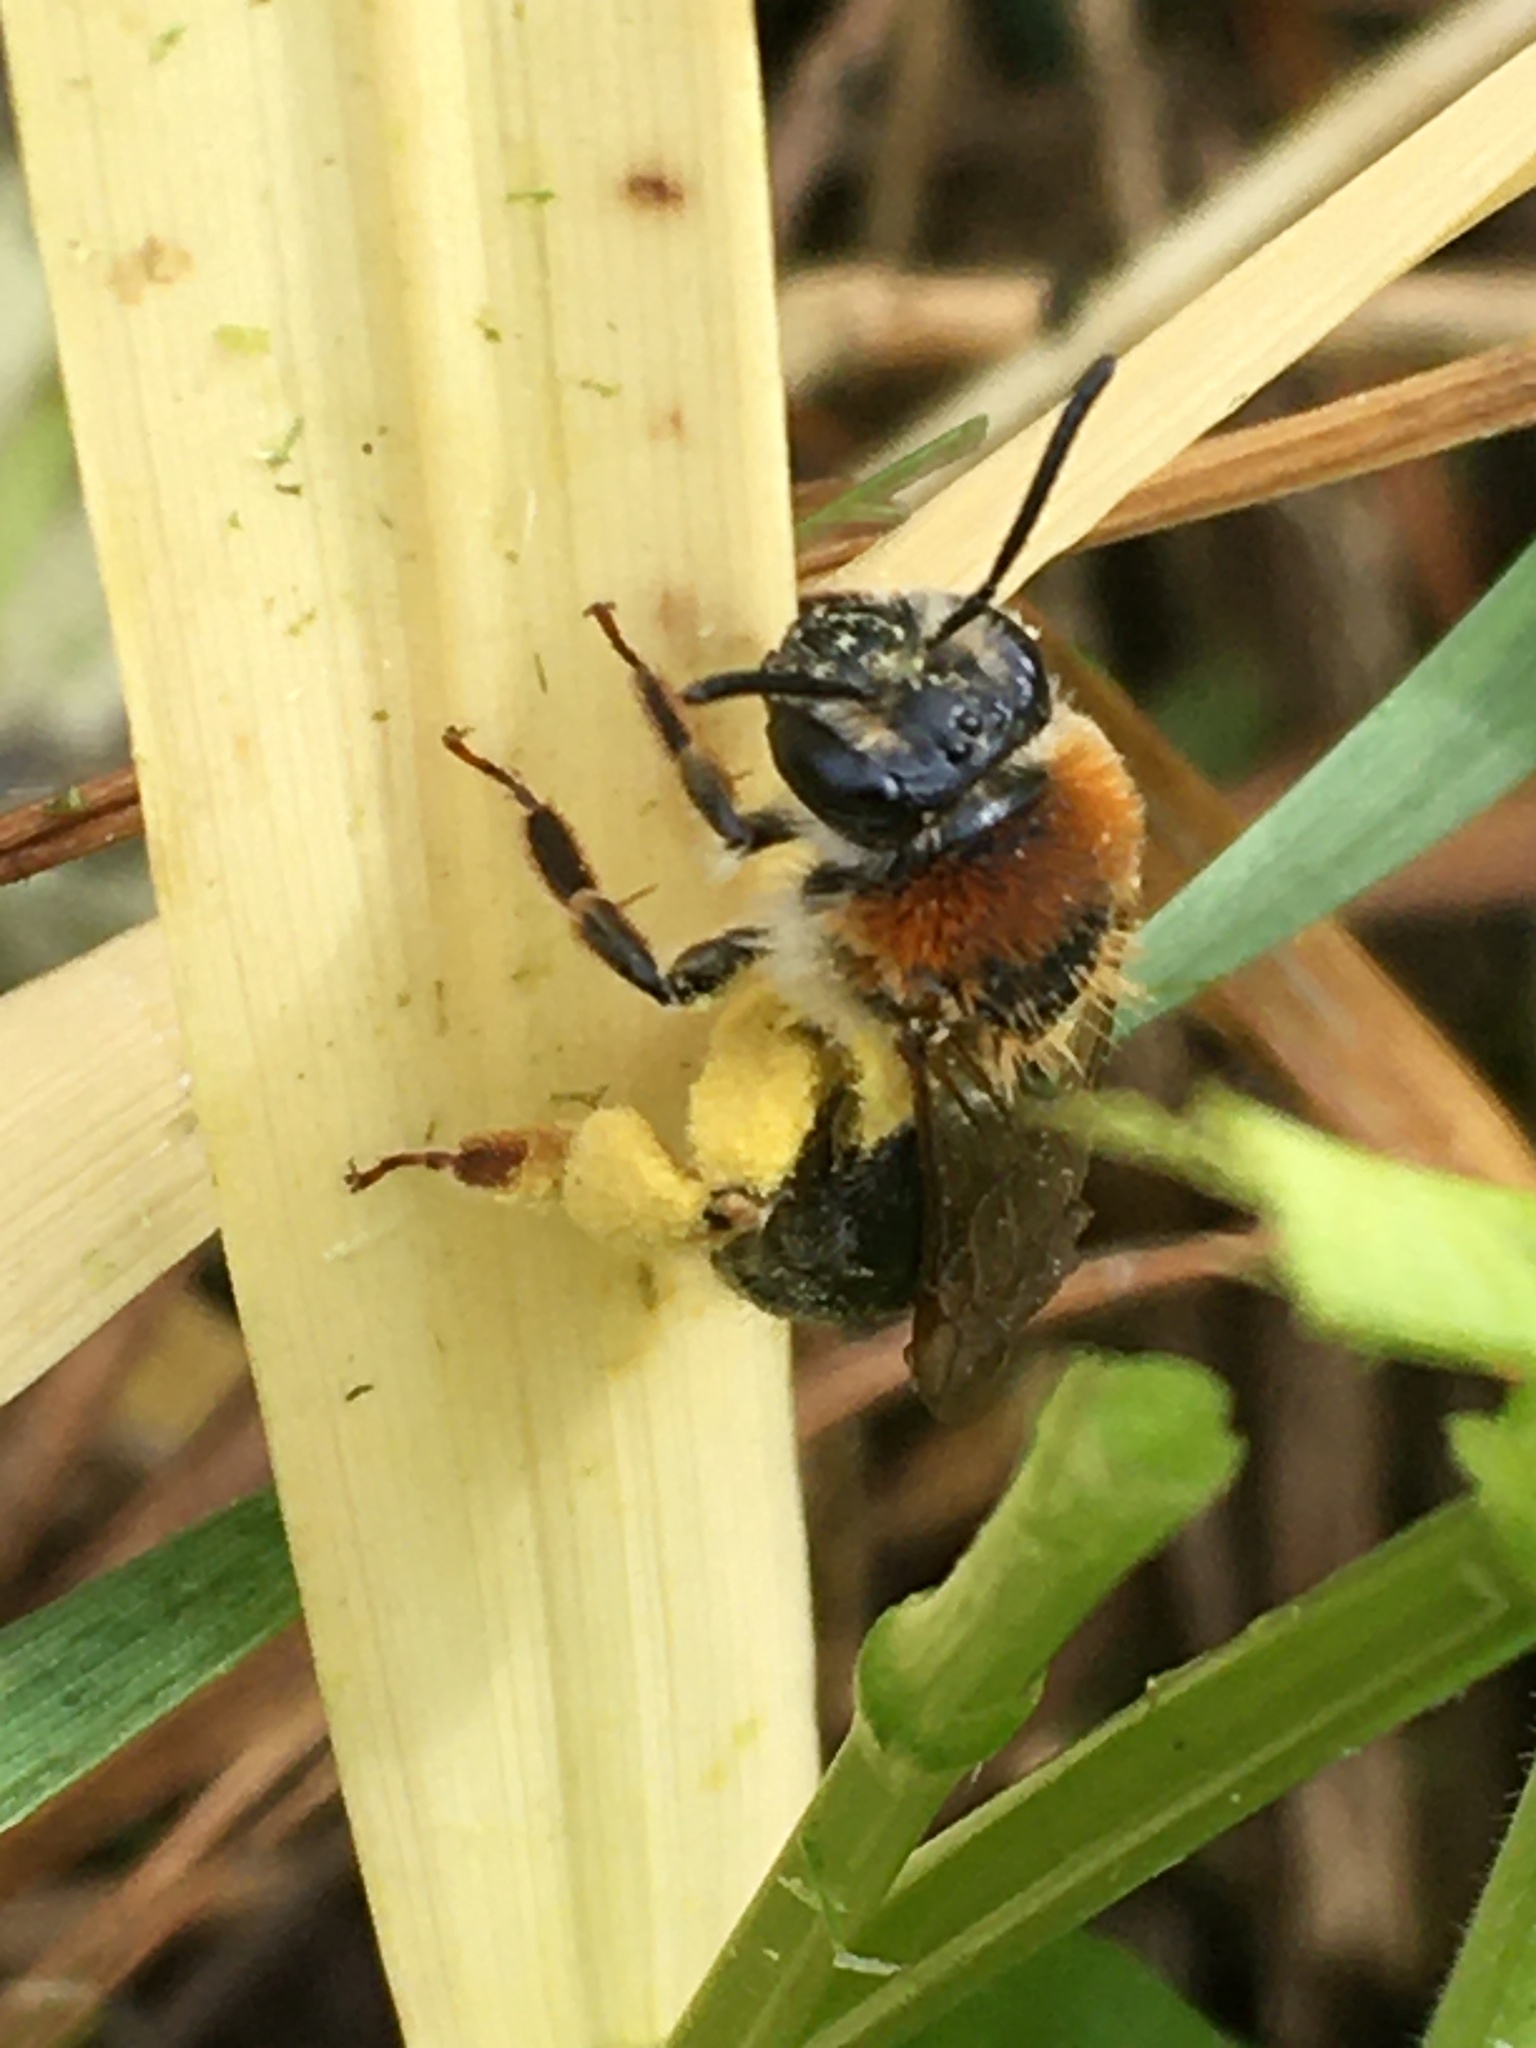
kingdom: Animalia
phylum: Arthropoda
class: Insecta
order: Hymenoptera
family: Andrenidae
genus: Andrena
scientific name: Andrena haemorrhoa
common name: Early mining bee
